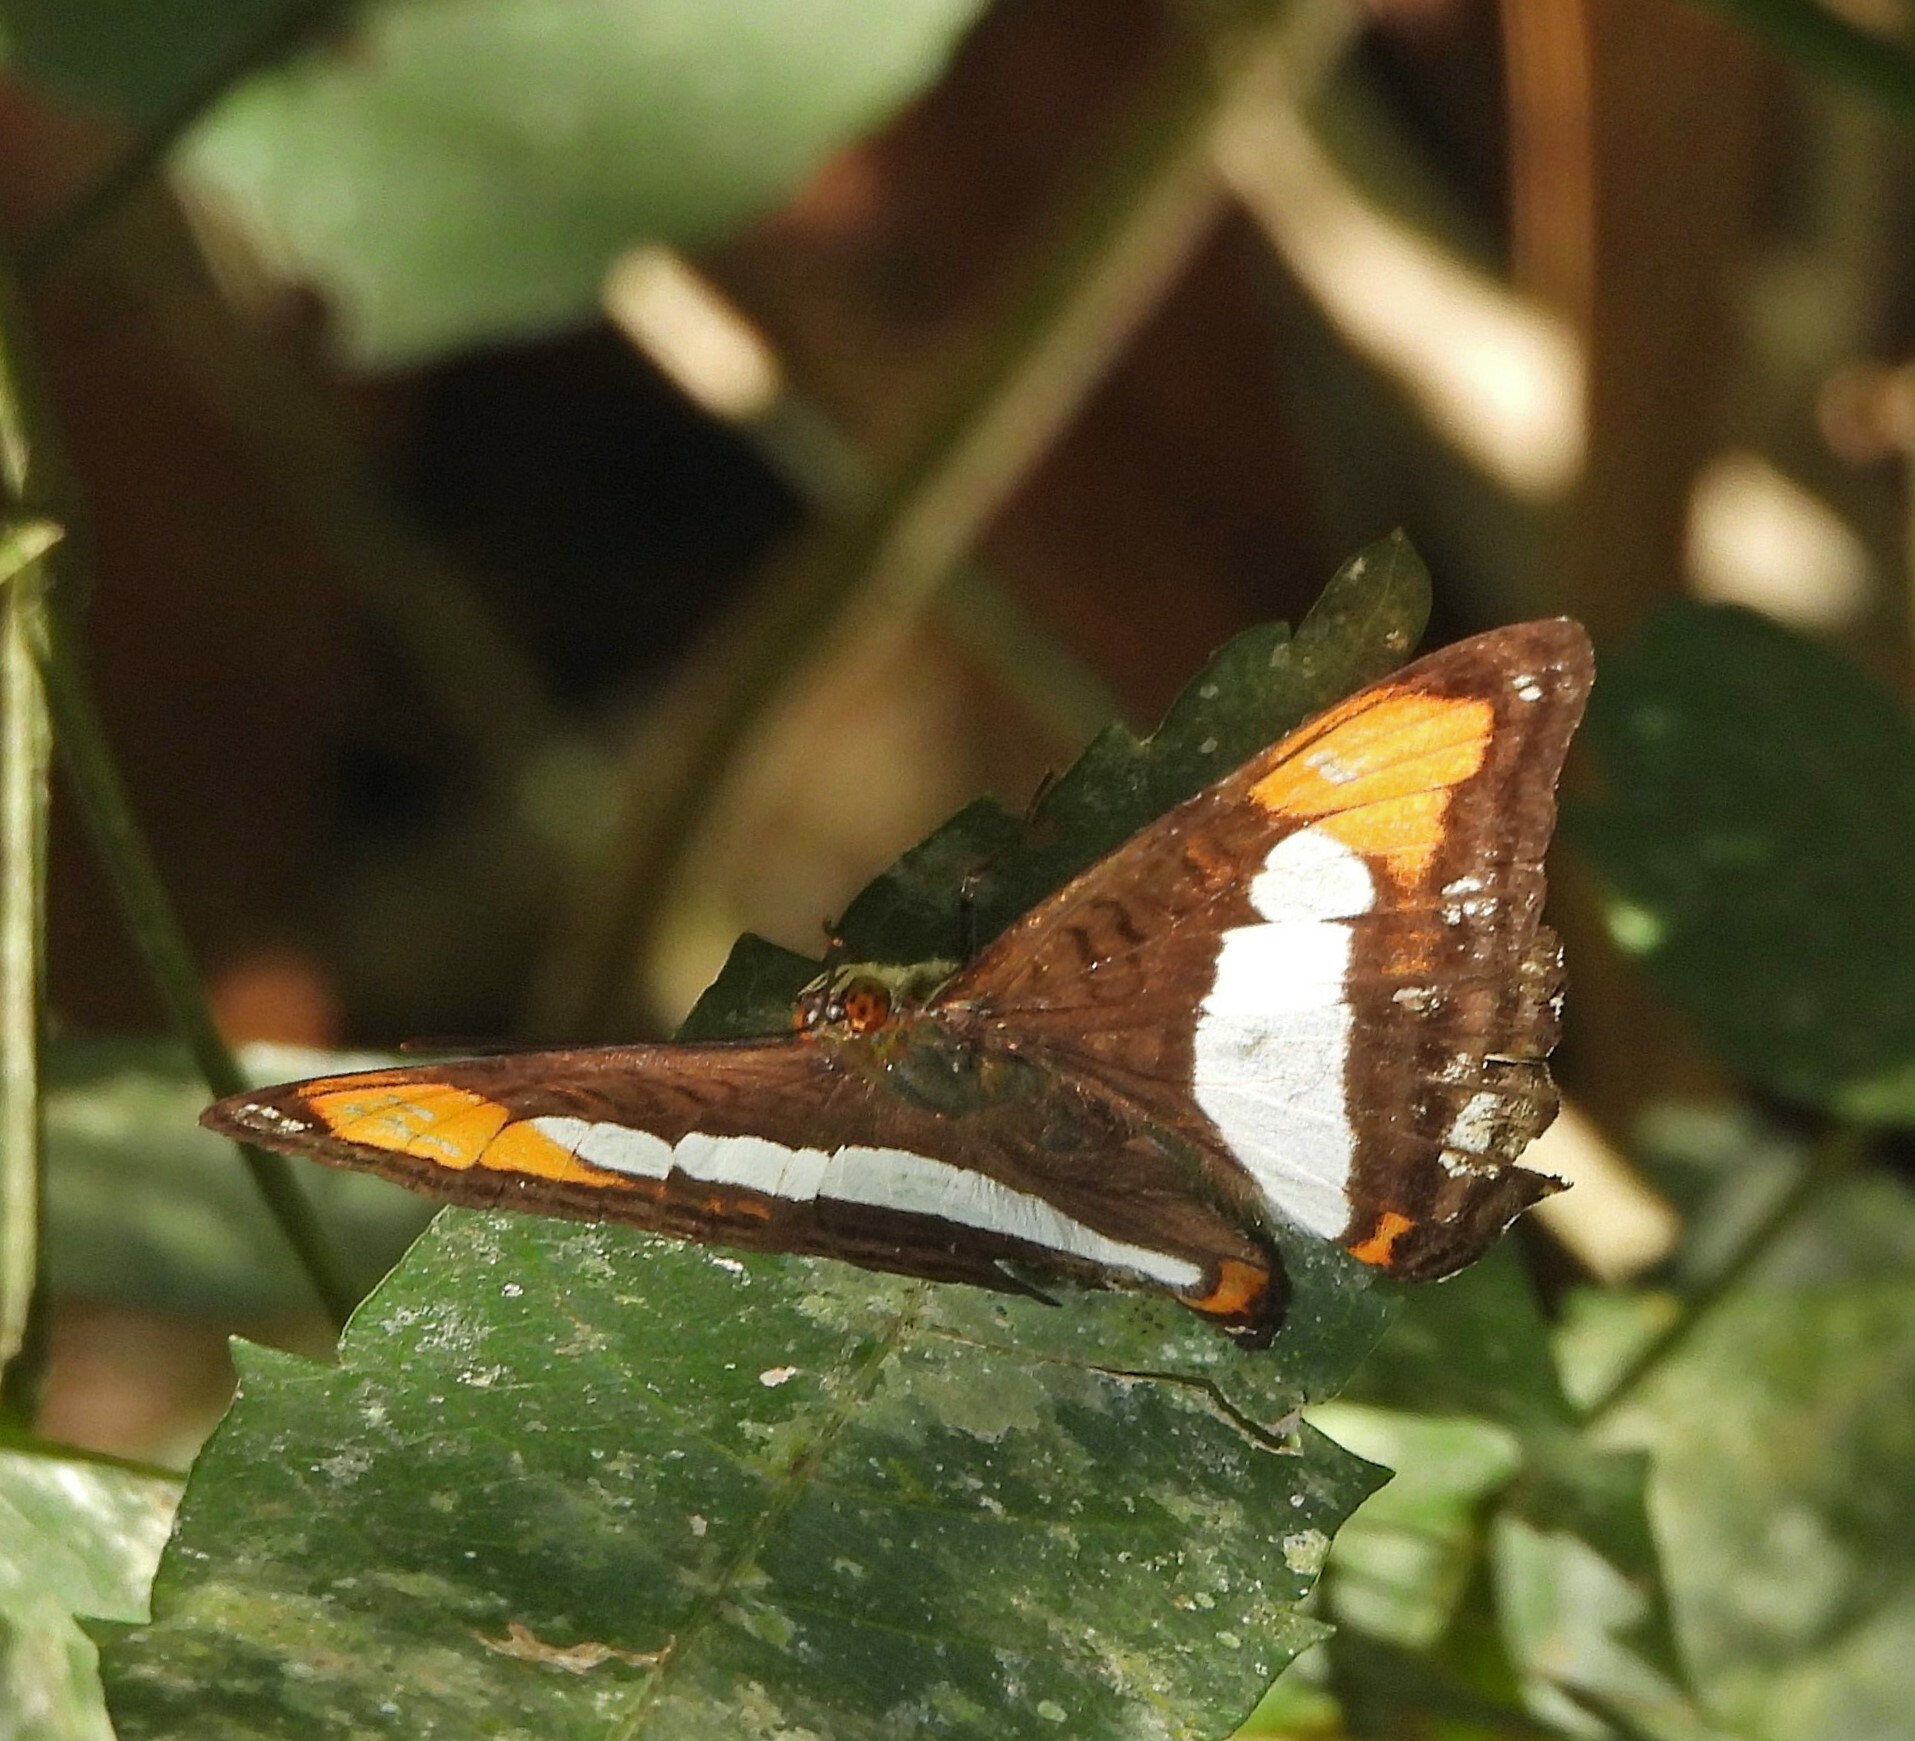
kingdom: Animalia
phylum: Arthropoda
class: Insecta
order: Lepidoptera
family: Nymphalidae
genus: Limenitis
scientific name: Limenitis zea
